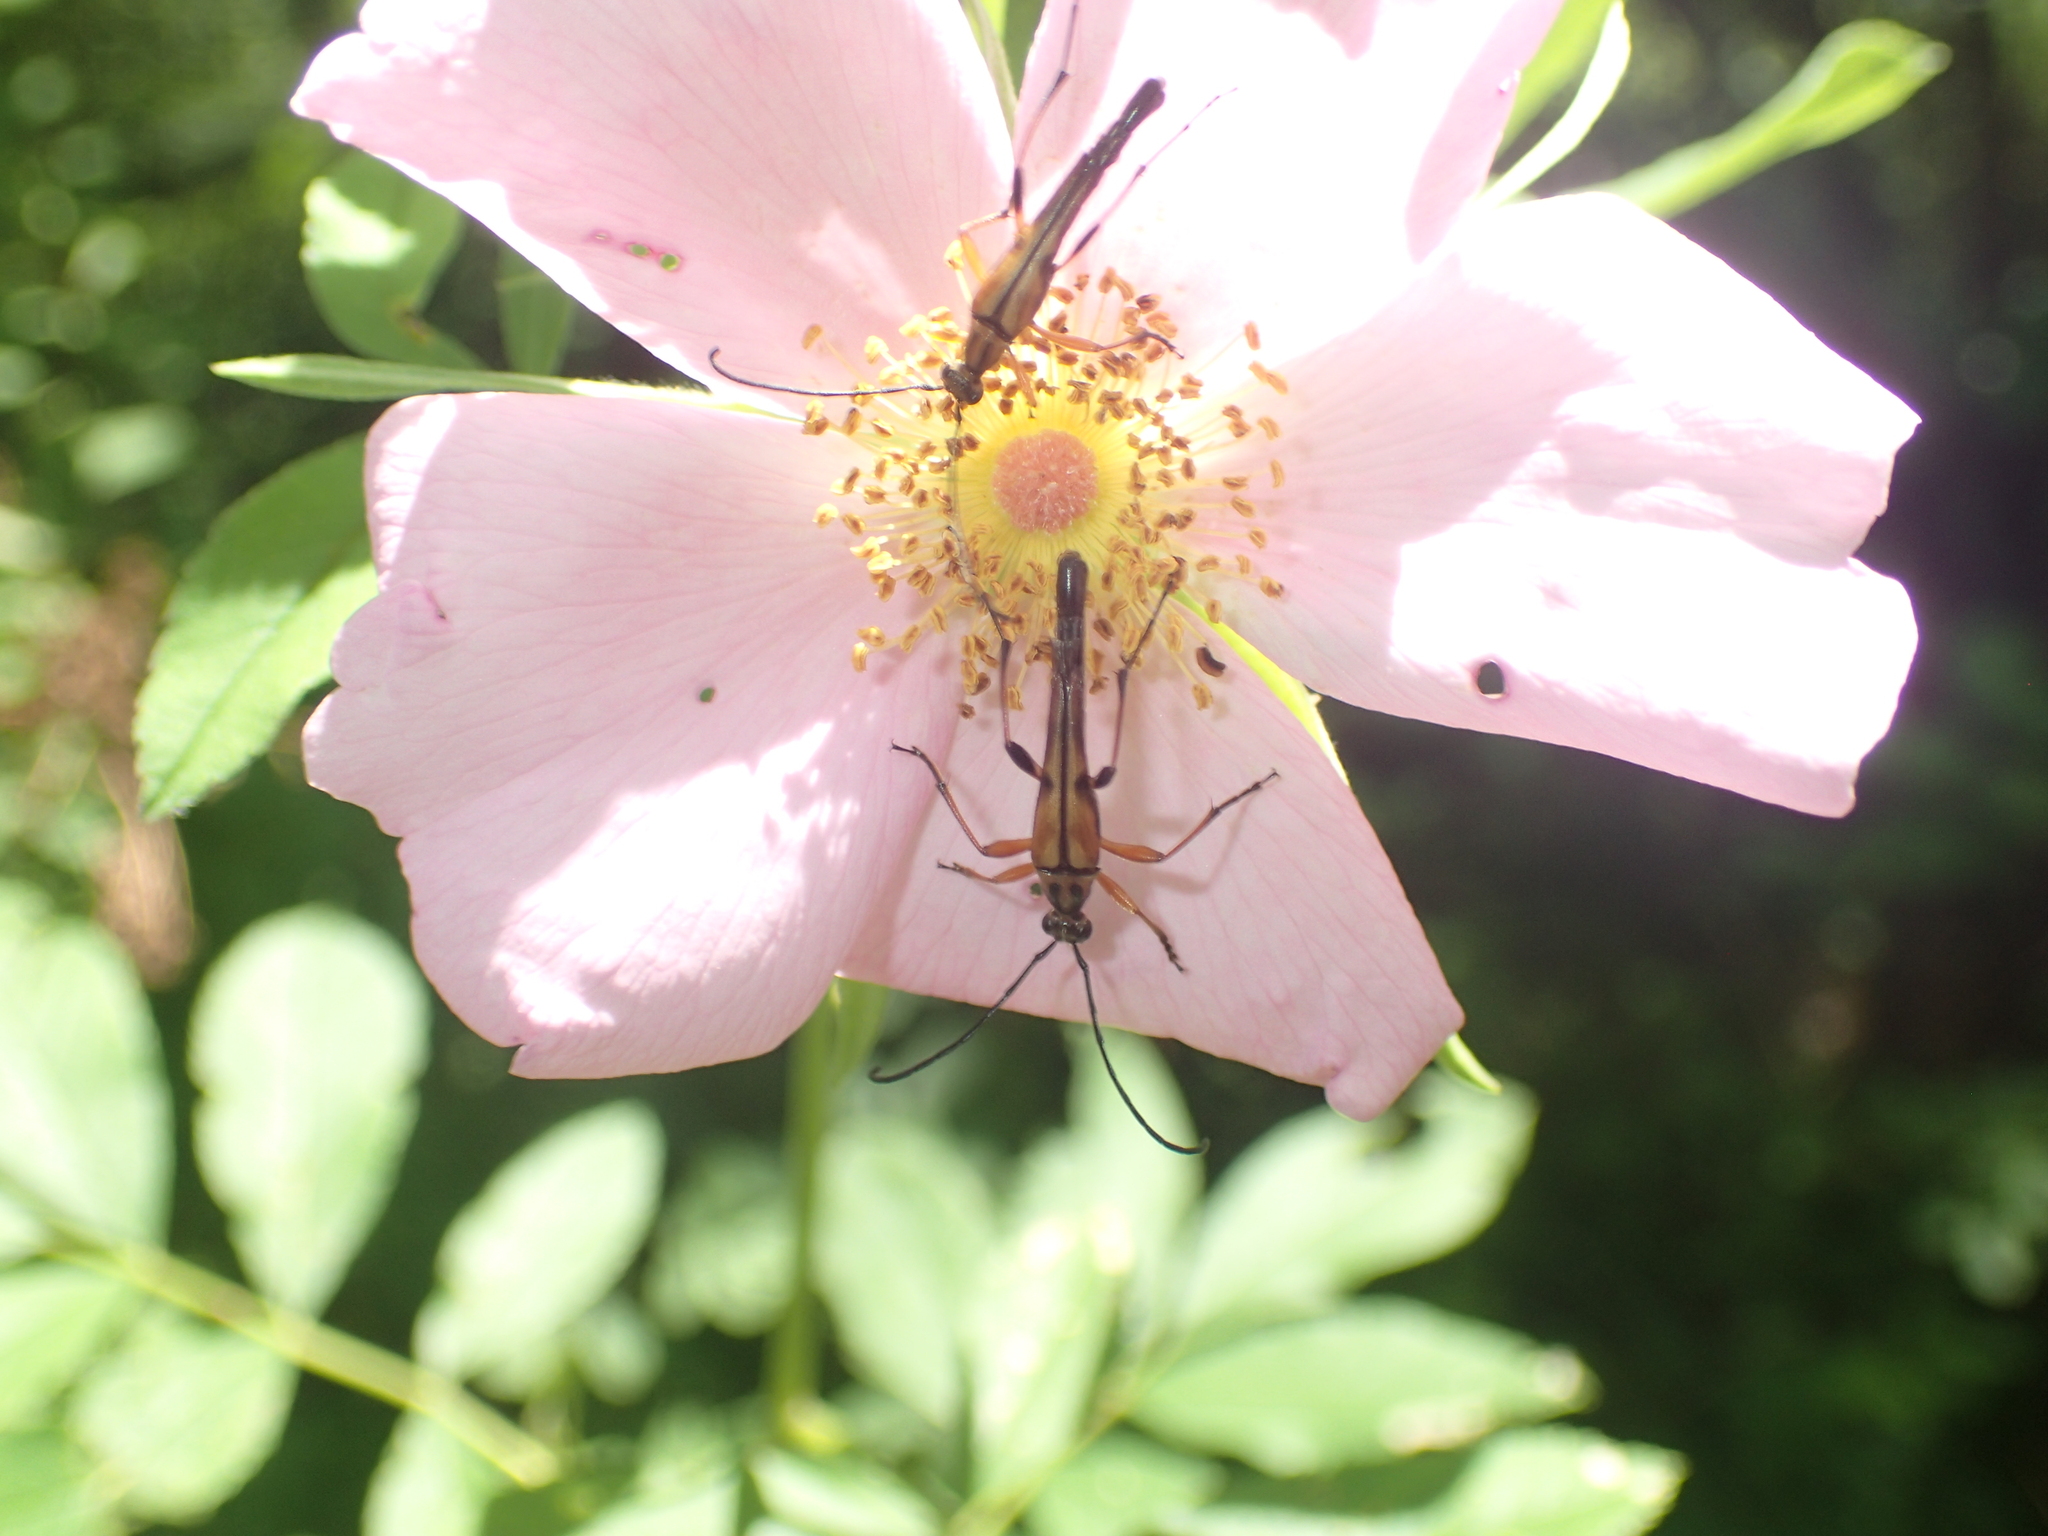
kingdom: Animalia
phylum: Arthropoda
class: Insecta
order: Coleoptera
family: Cerambycidae
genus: Strangalia
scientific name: Strangalia famelica
